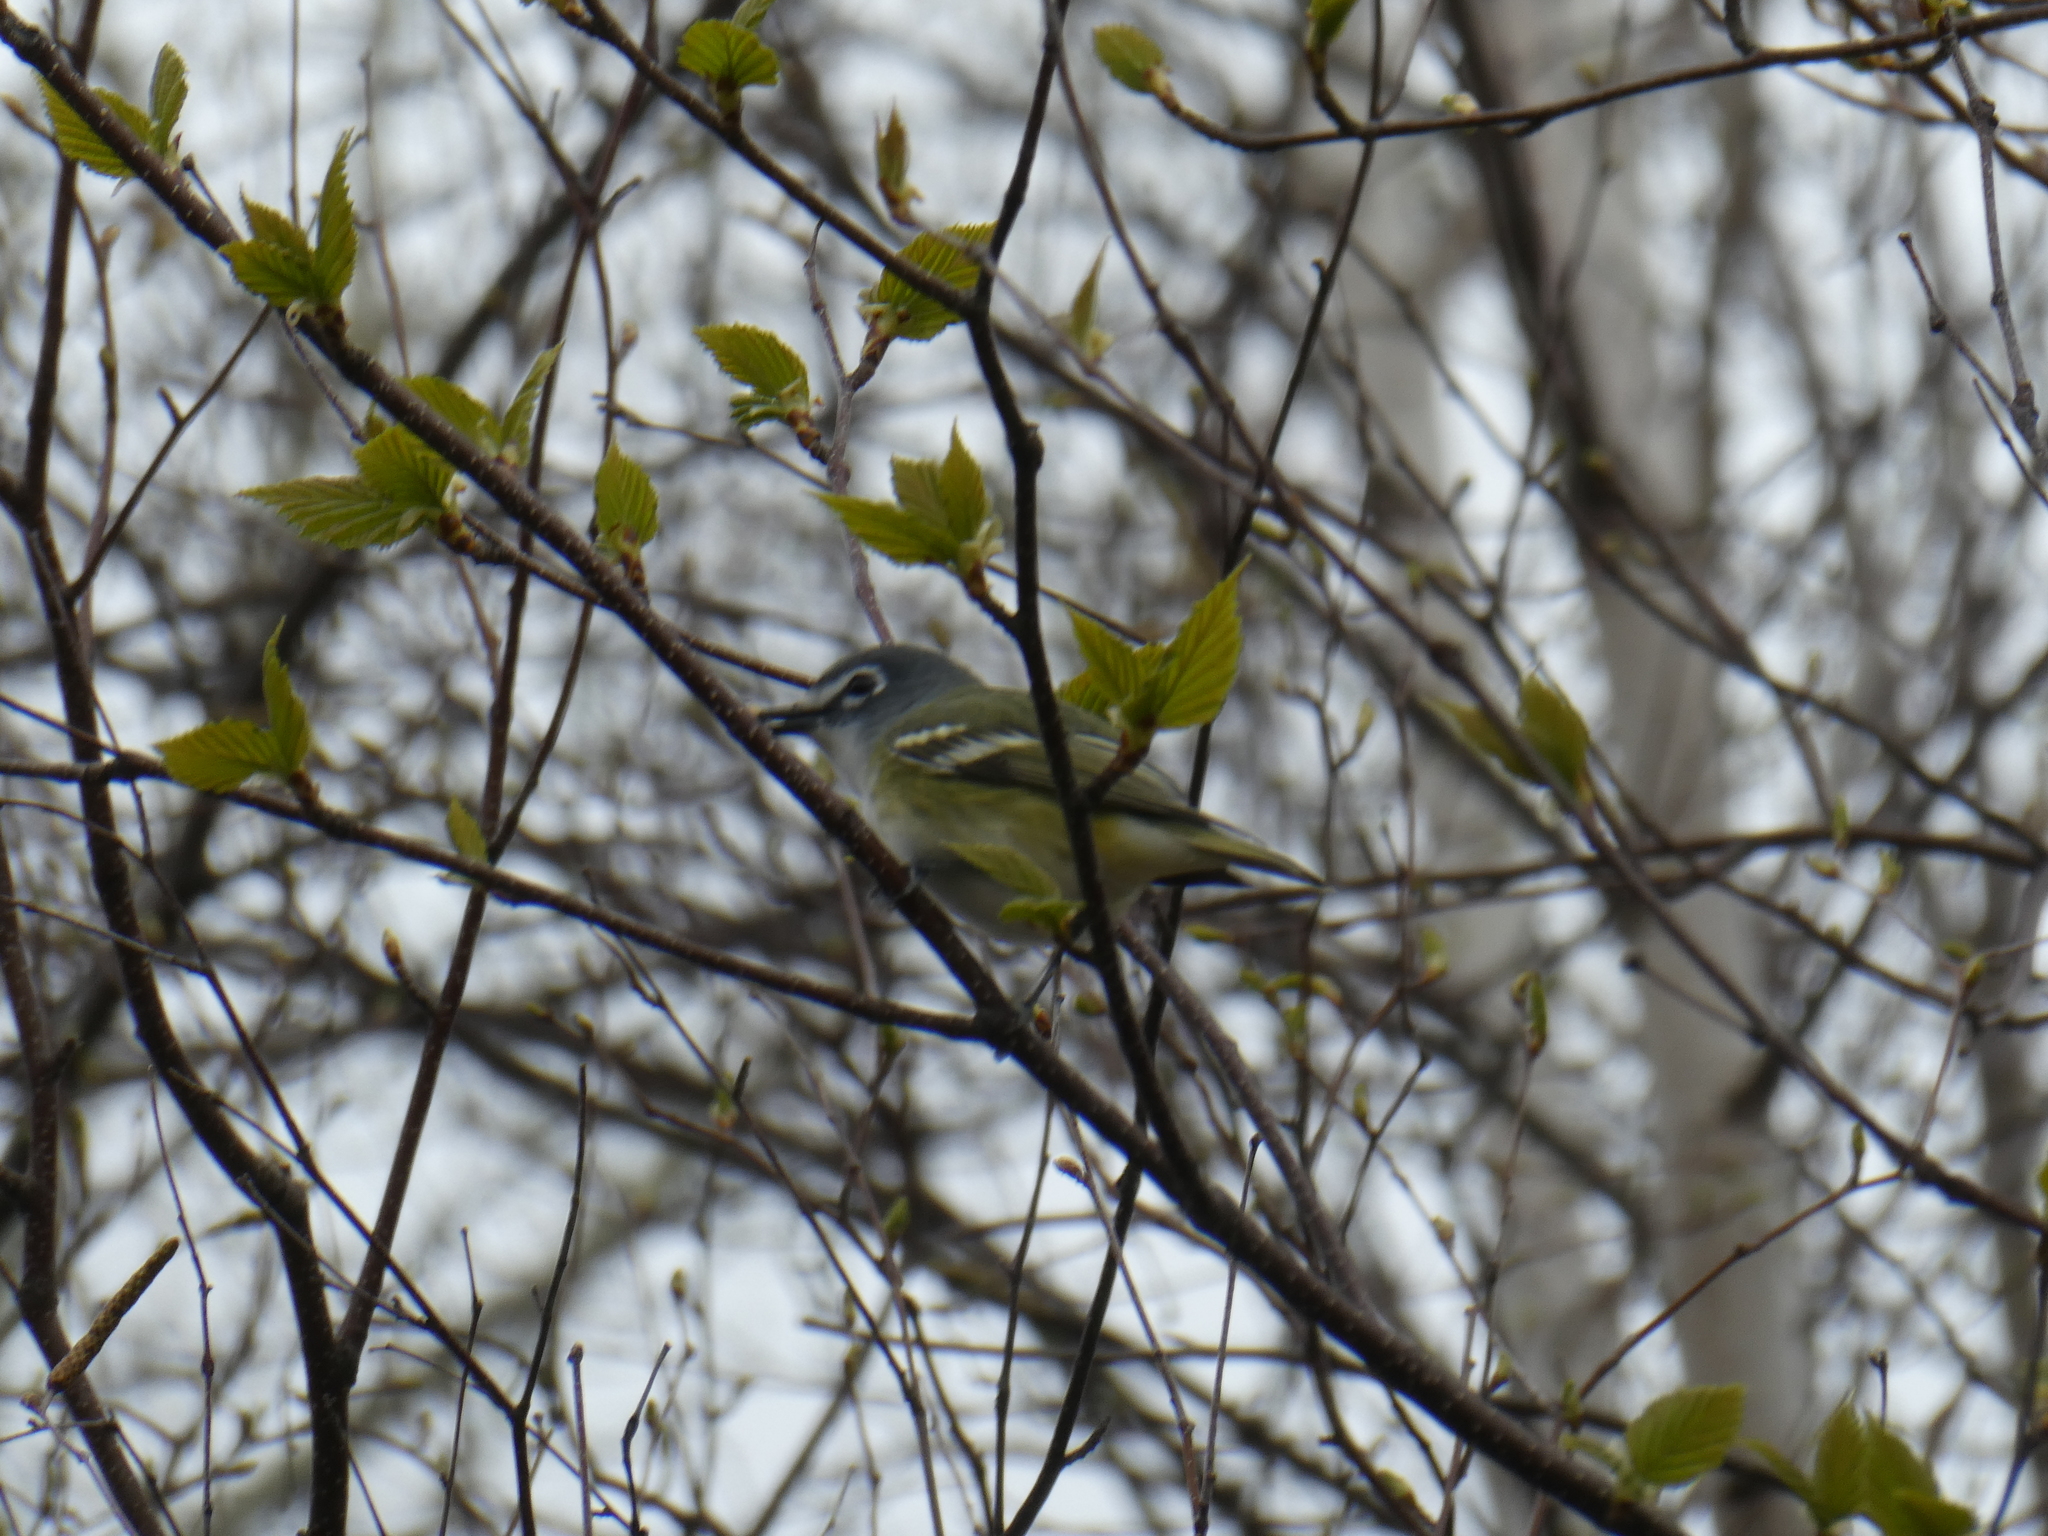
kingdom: Animalia
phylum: Chordata
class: Aves
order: Passeriformes
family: Vireonidae
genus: Vireo
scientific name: Vireo solitarius
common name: Blue-headed vireo
